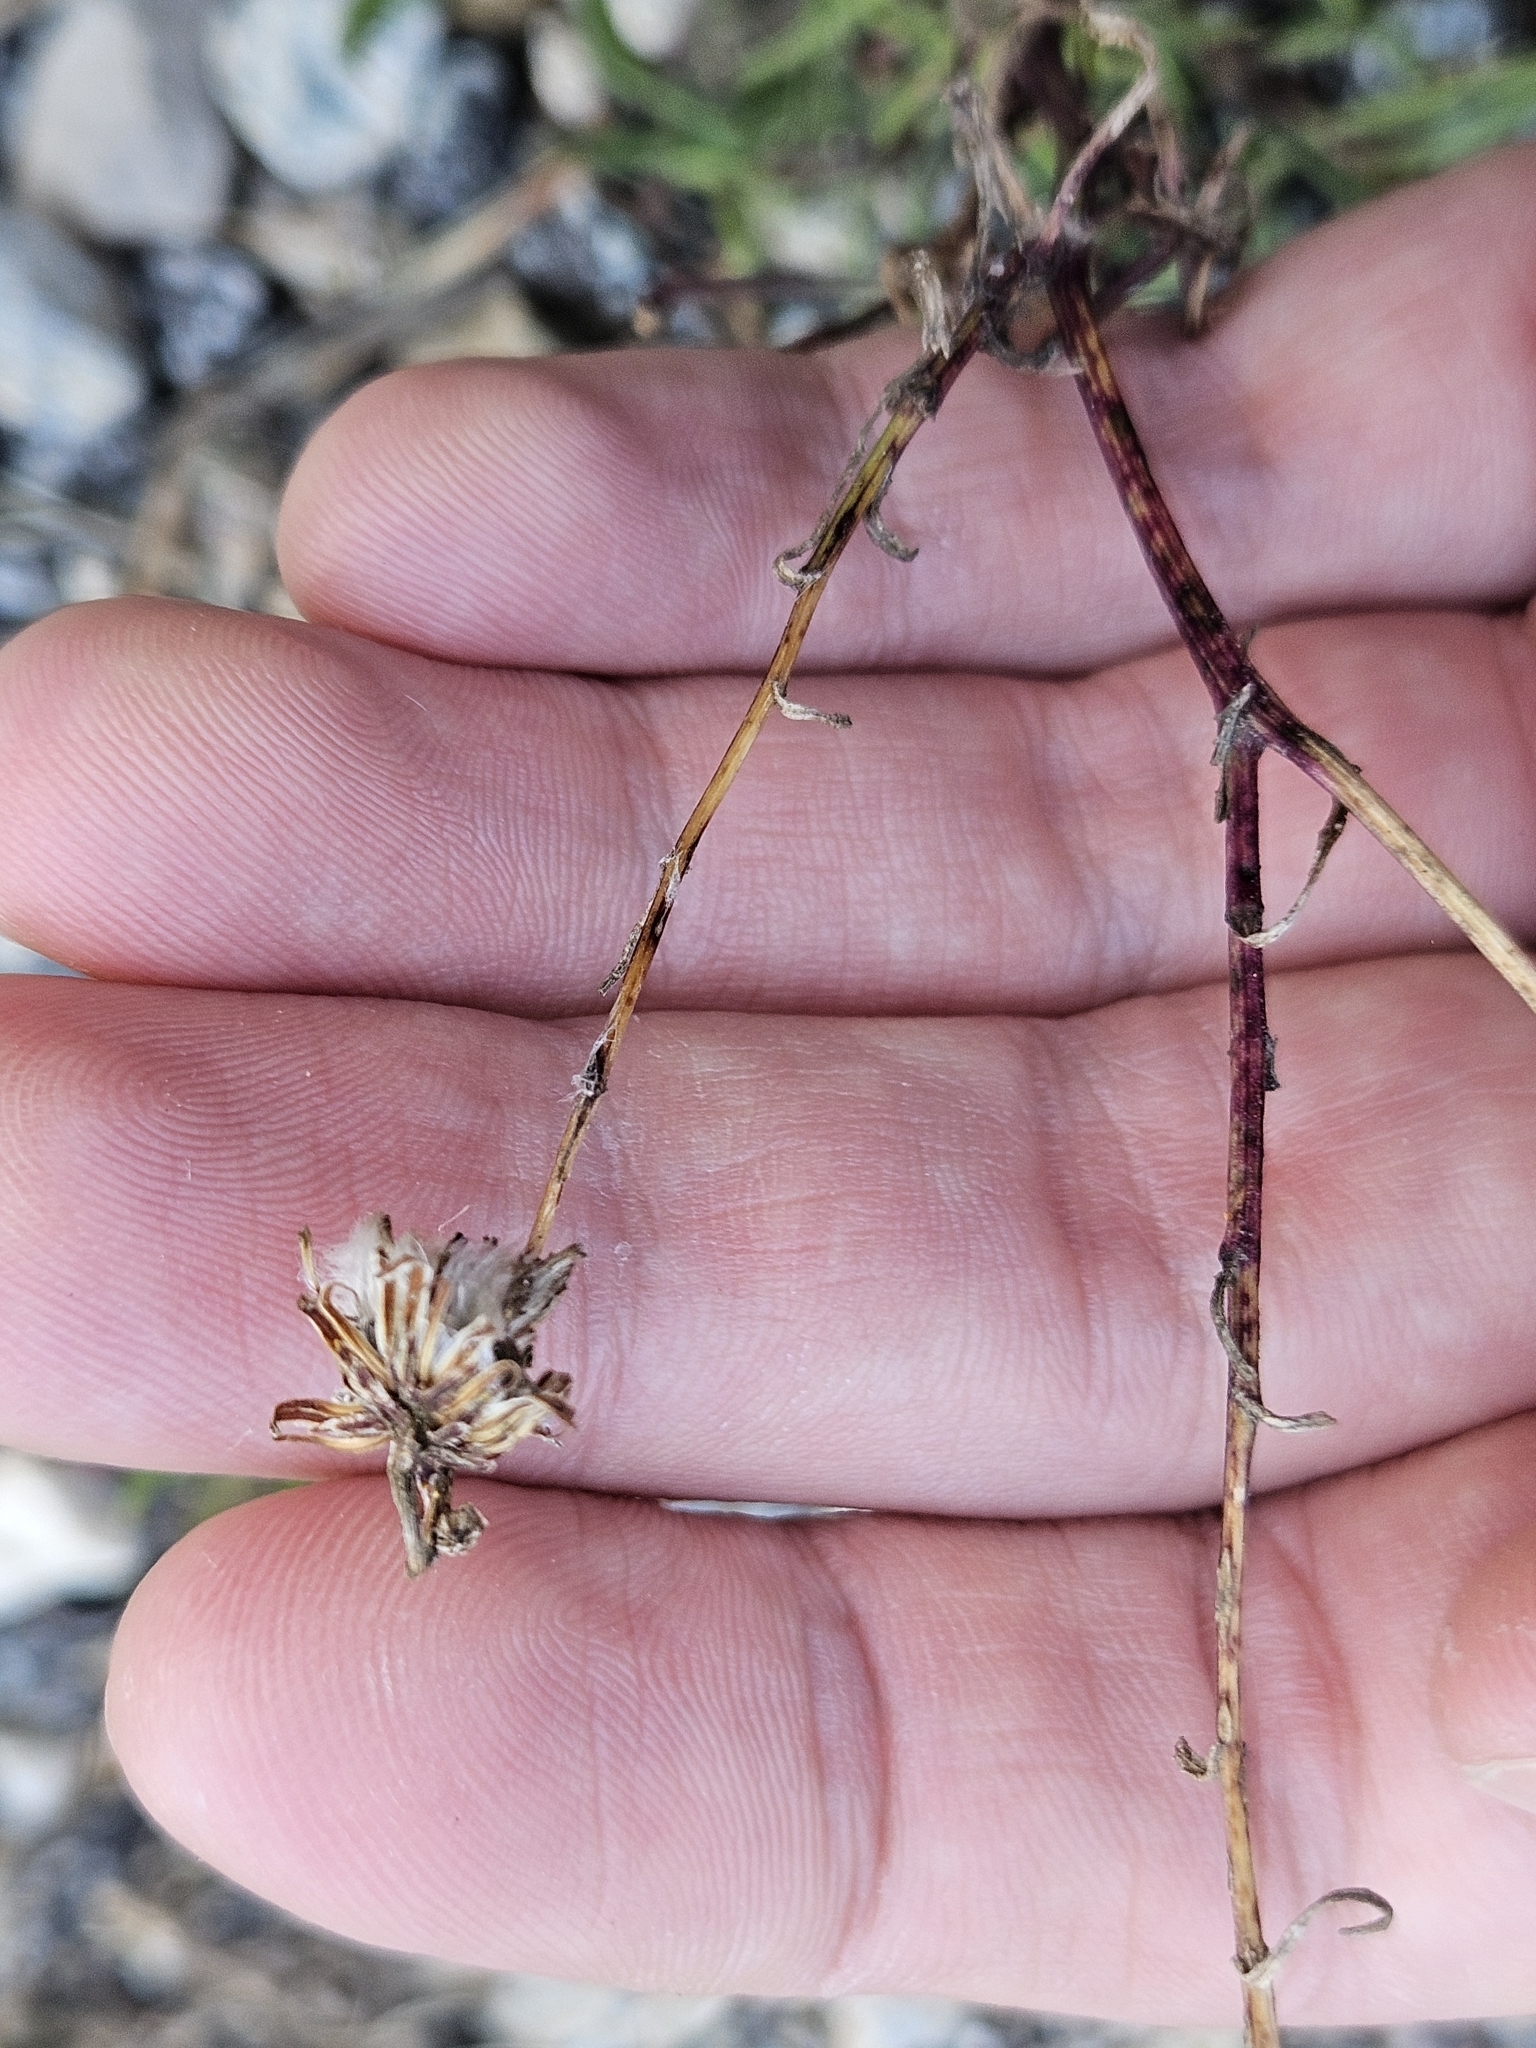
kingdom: Plantae
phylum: Tracheophyta
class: Magnoliopsida
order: Asterales
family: Asteraceae
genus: Senecio
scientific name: Senecio inaequidens
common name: Narrow-leaved ragwort
